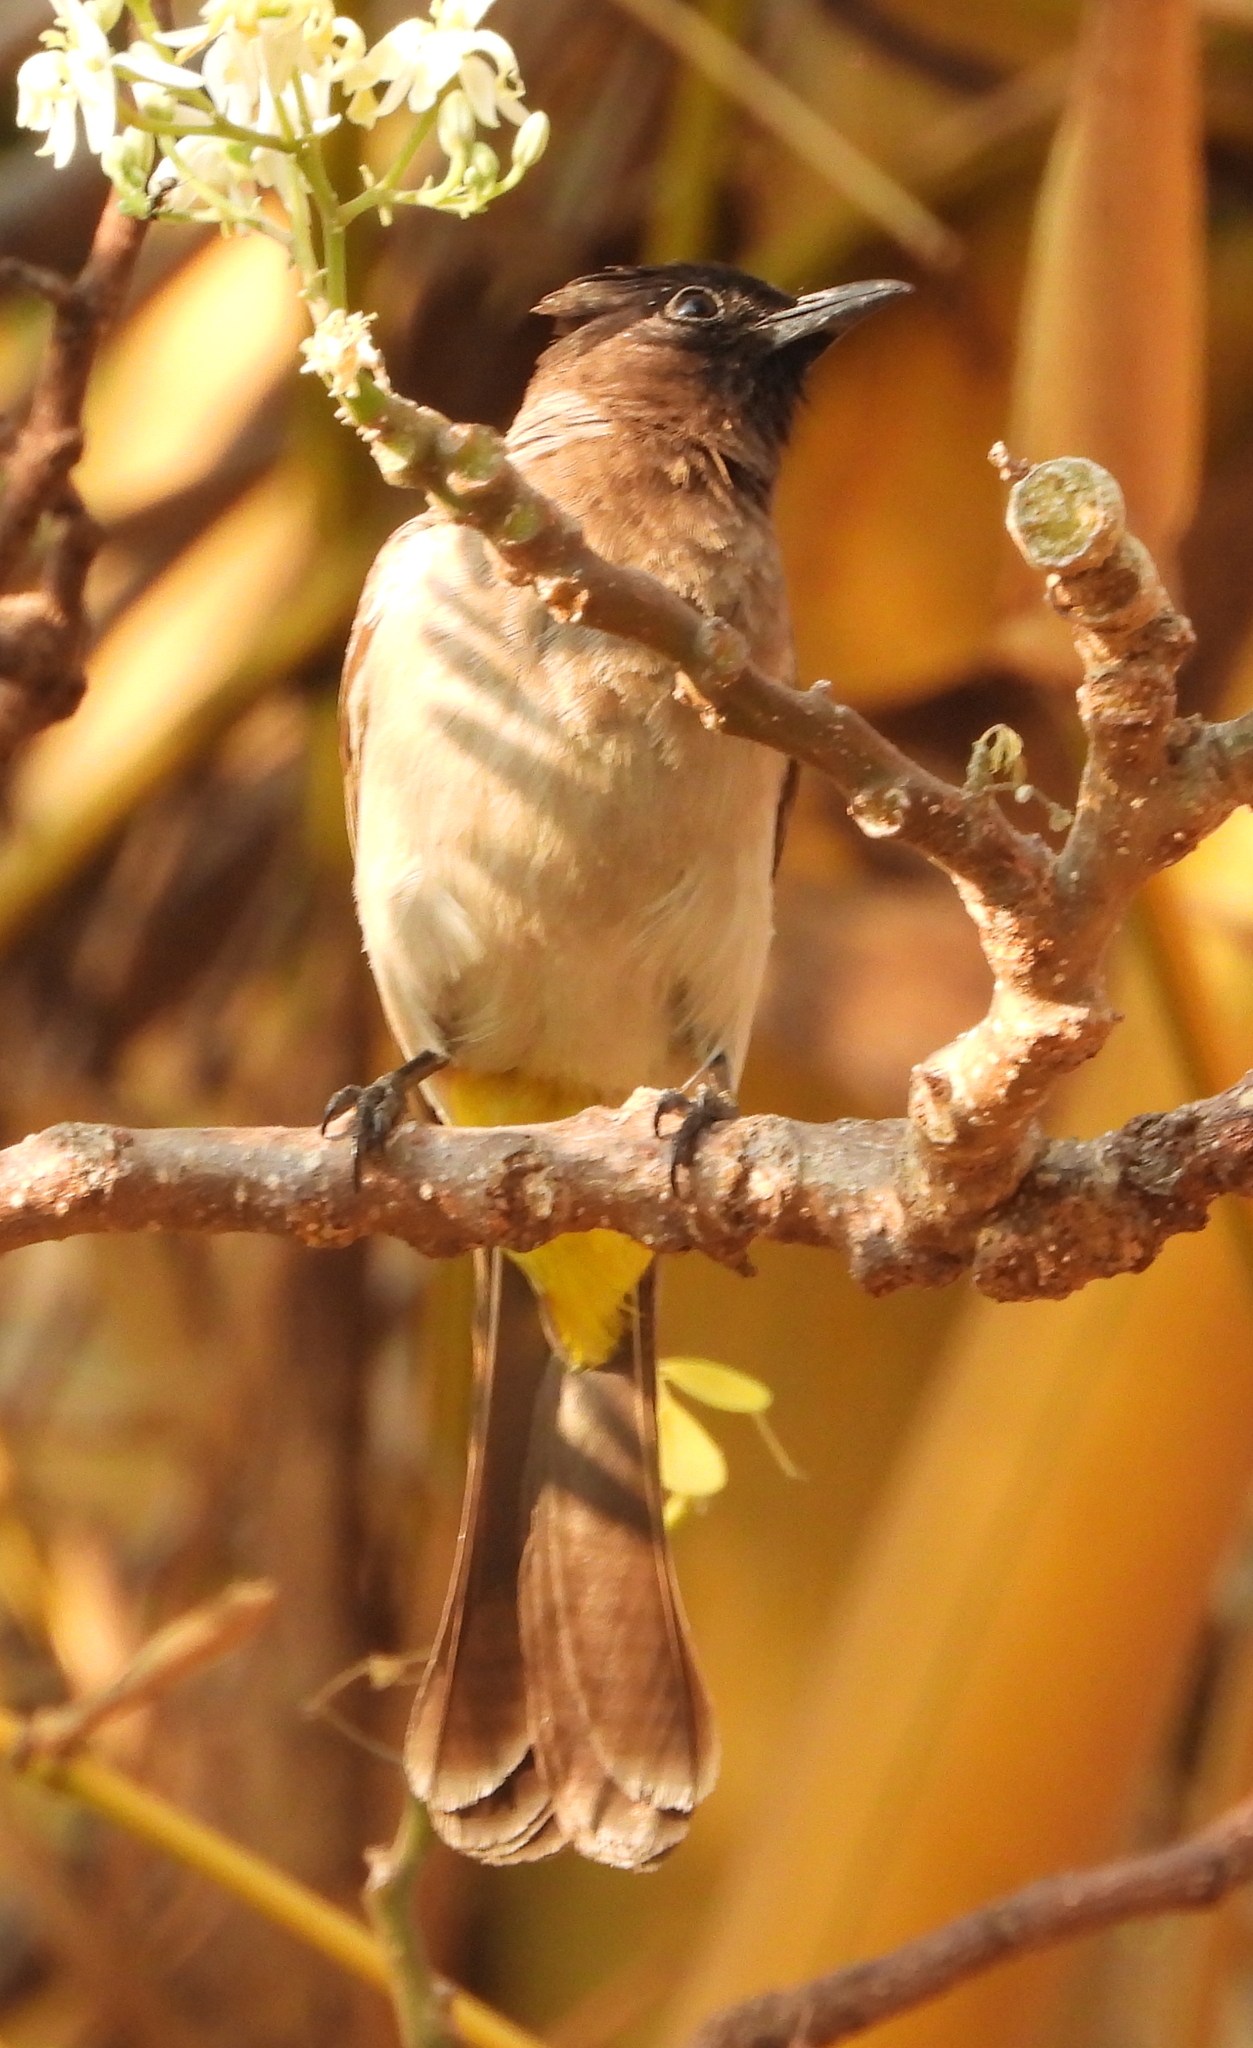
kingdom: Animalia
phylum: Chordata
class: Aves
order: Passeriformes
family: Pycnonotidae
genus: Pycnonotus
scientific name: Pycnonotus barbatus
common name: Common bulbul
